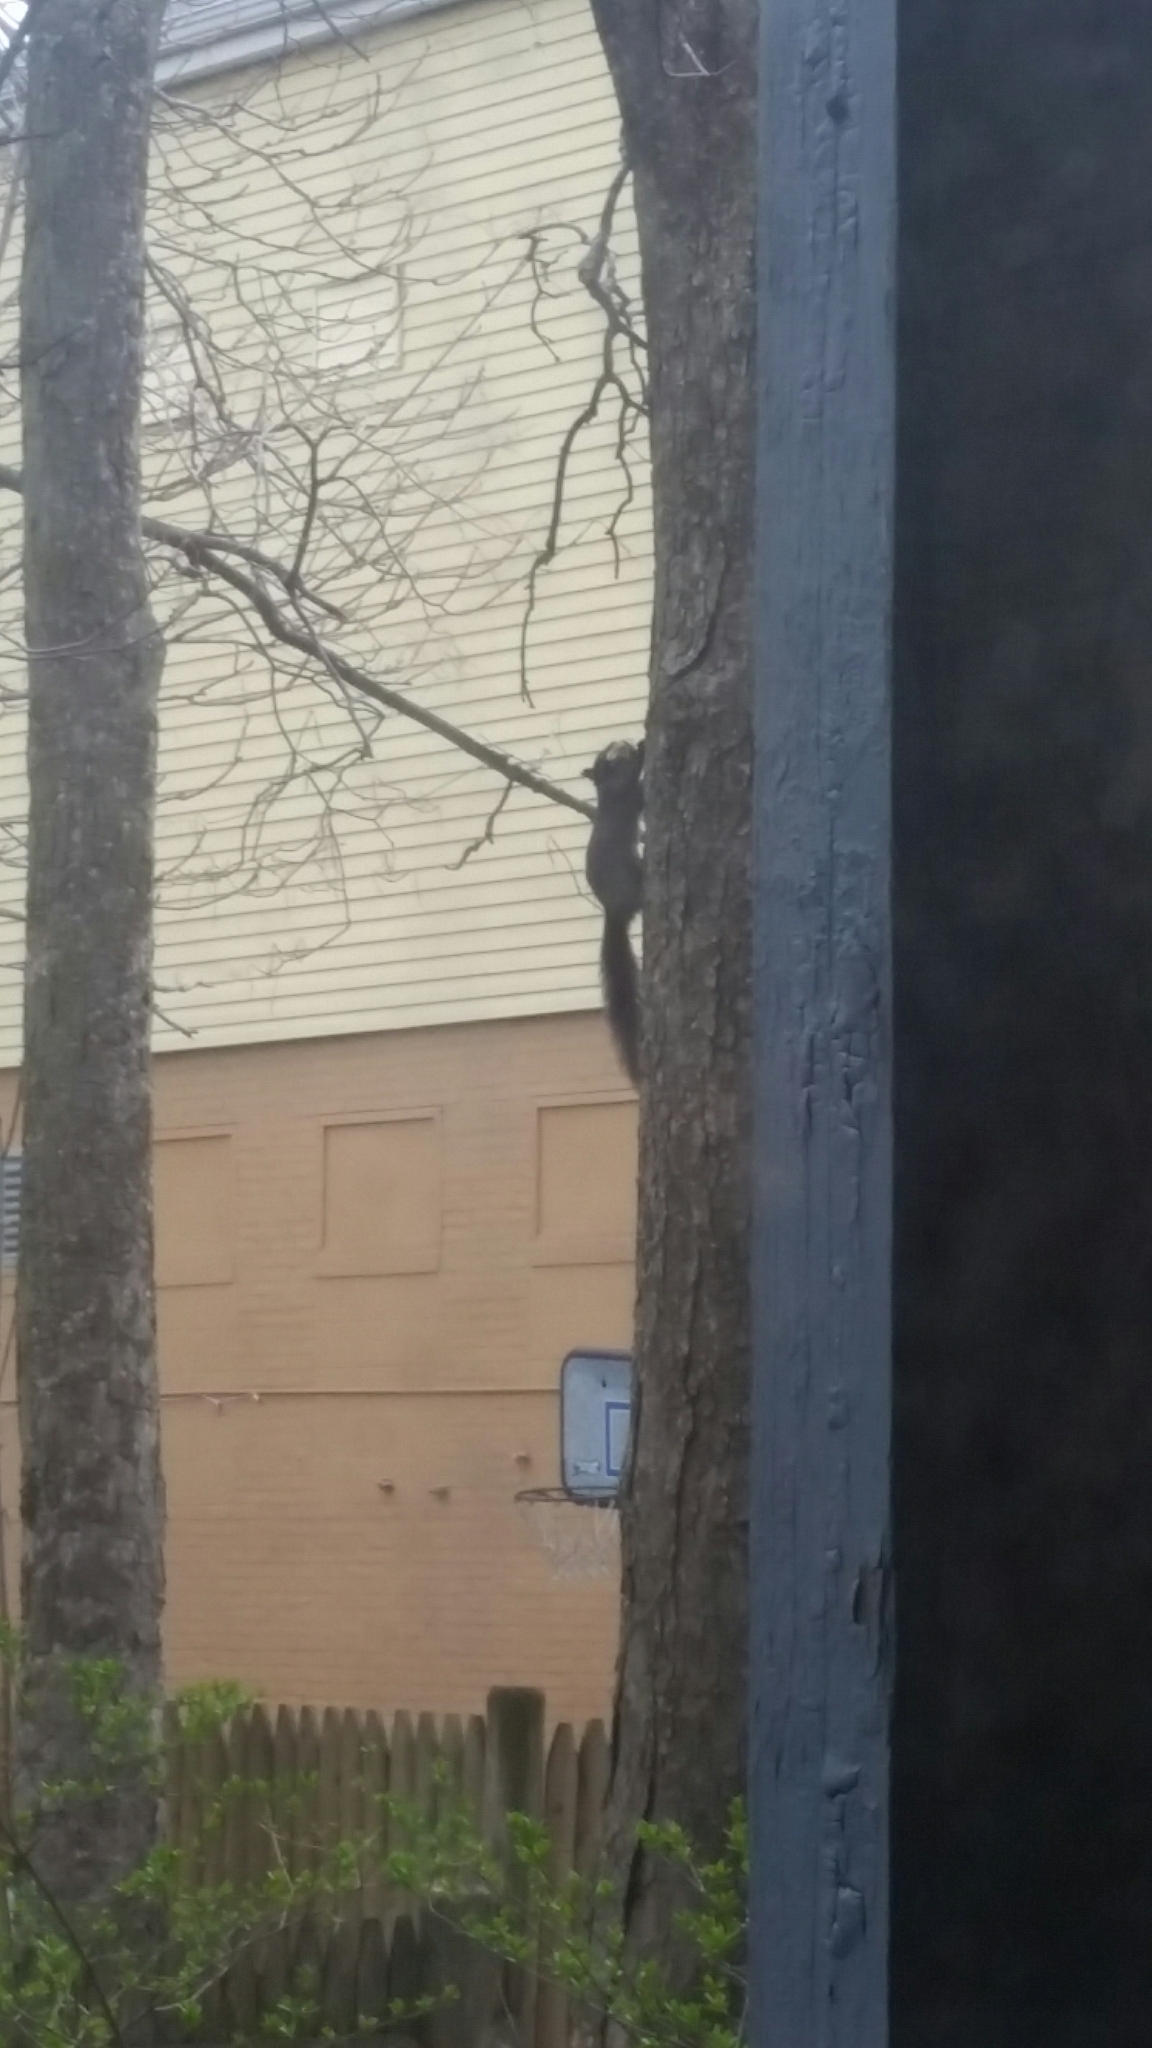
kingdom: Animalia
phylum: Chordata
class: Mammalia
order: Rodentia
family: Sciuridae
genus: Sciurus
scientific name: Sciurus carolinensis
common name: Eastern gray squirrel
